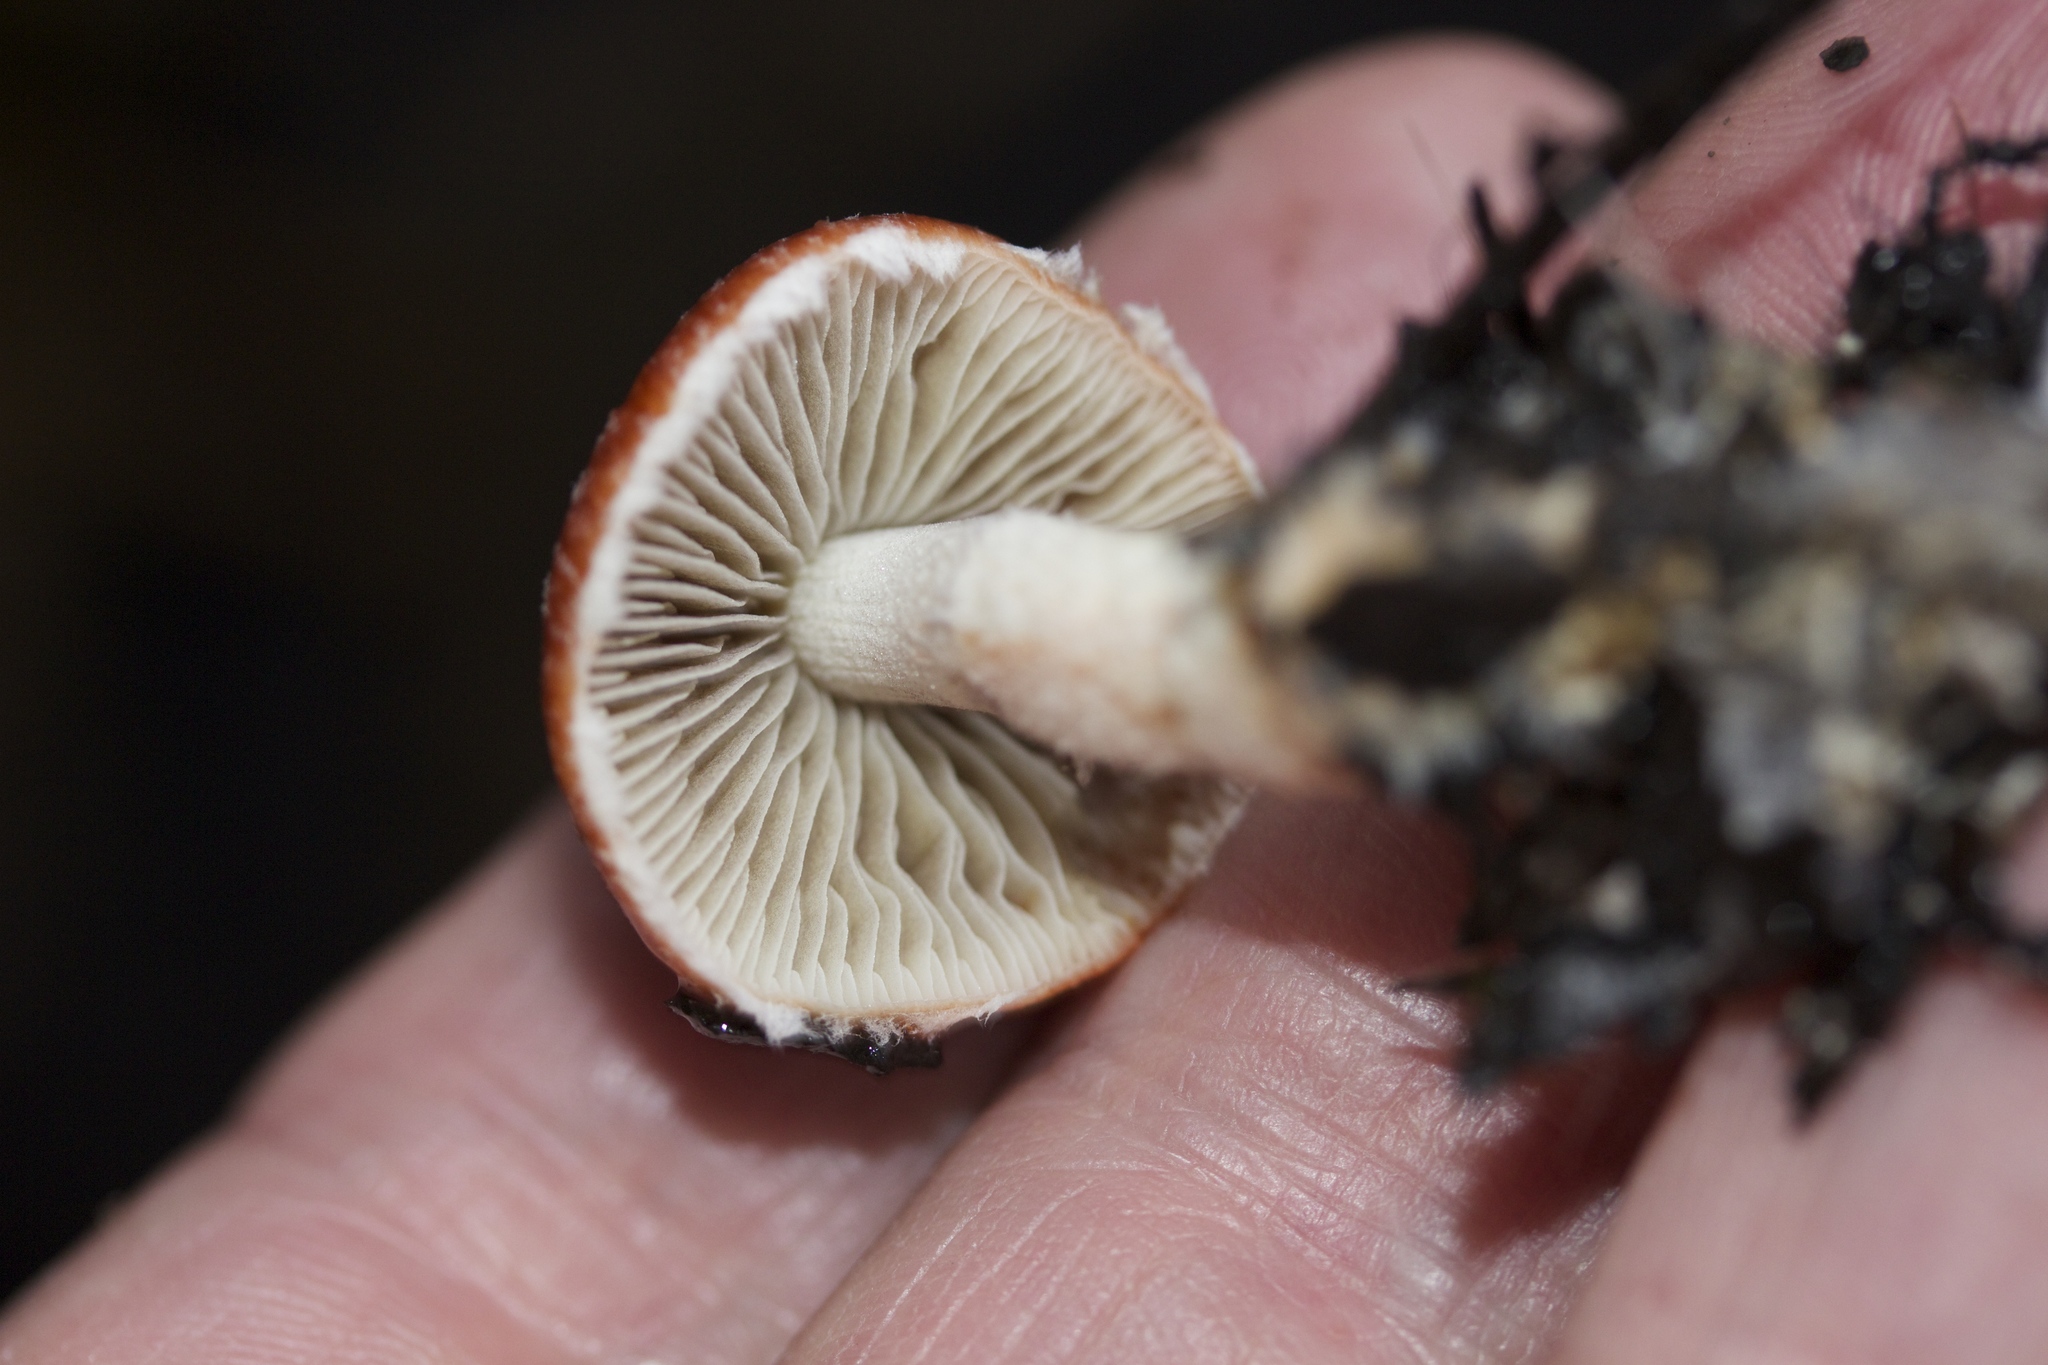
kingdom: Fungi
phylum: Basidiomycota
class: Agaricomycetes
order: Agaricales
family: Strophariaceae
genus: Leratiomyces
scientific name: Leratiomyces ceres
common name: Redlead roundhead
